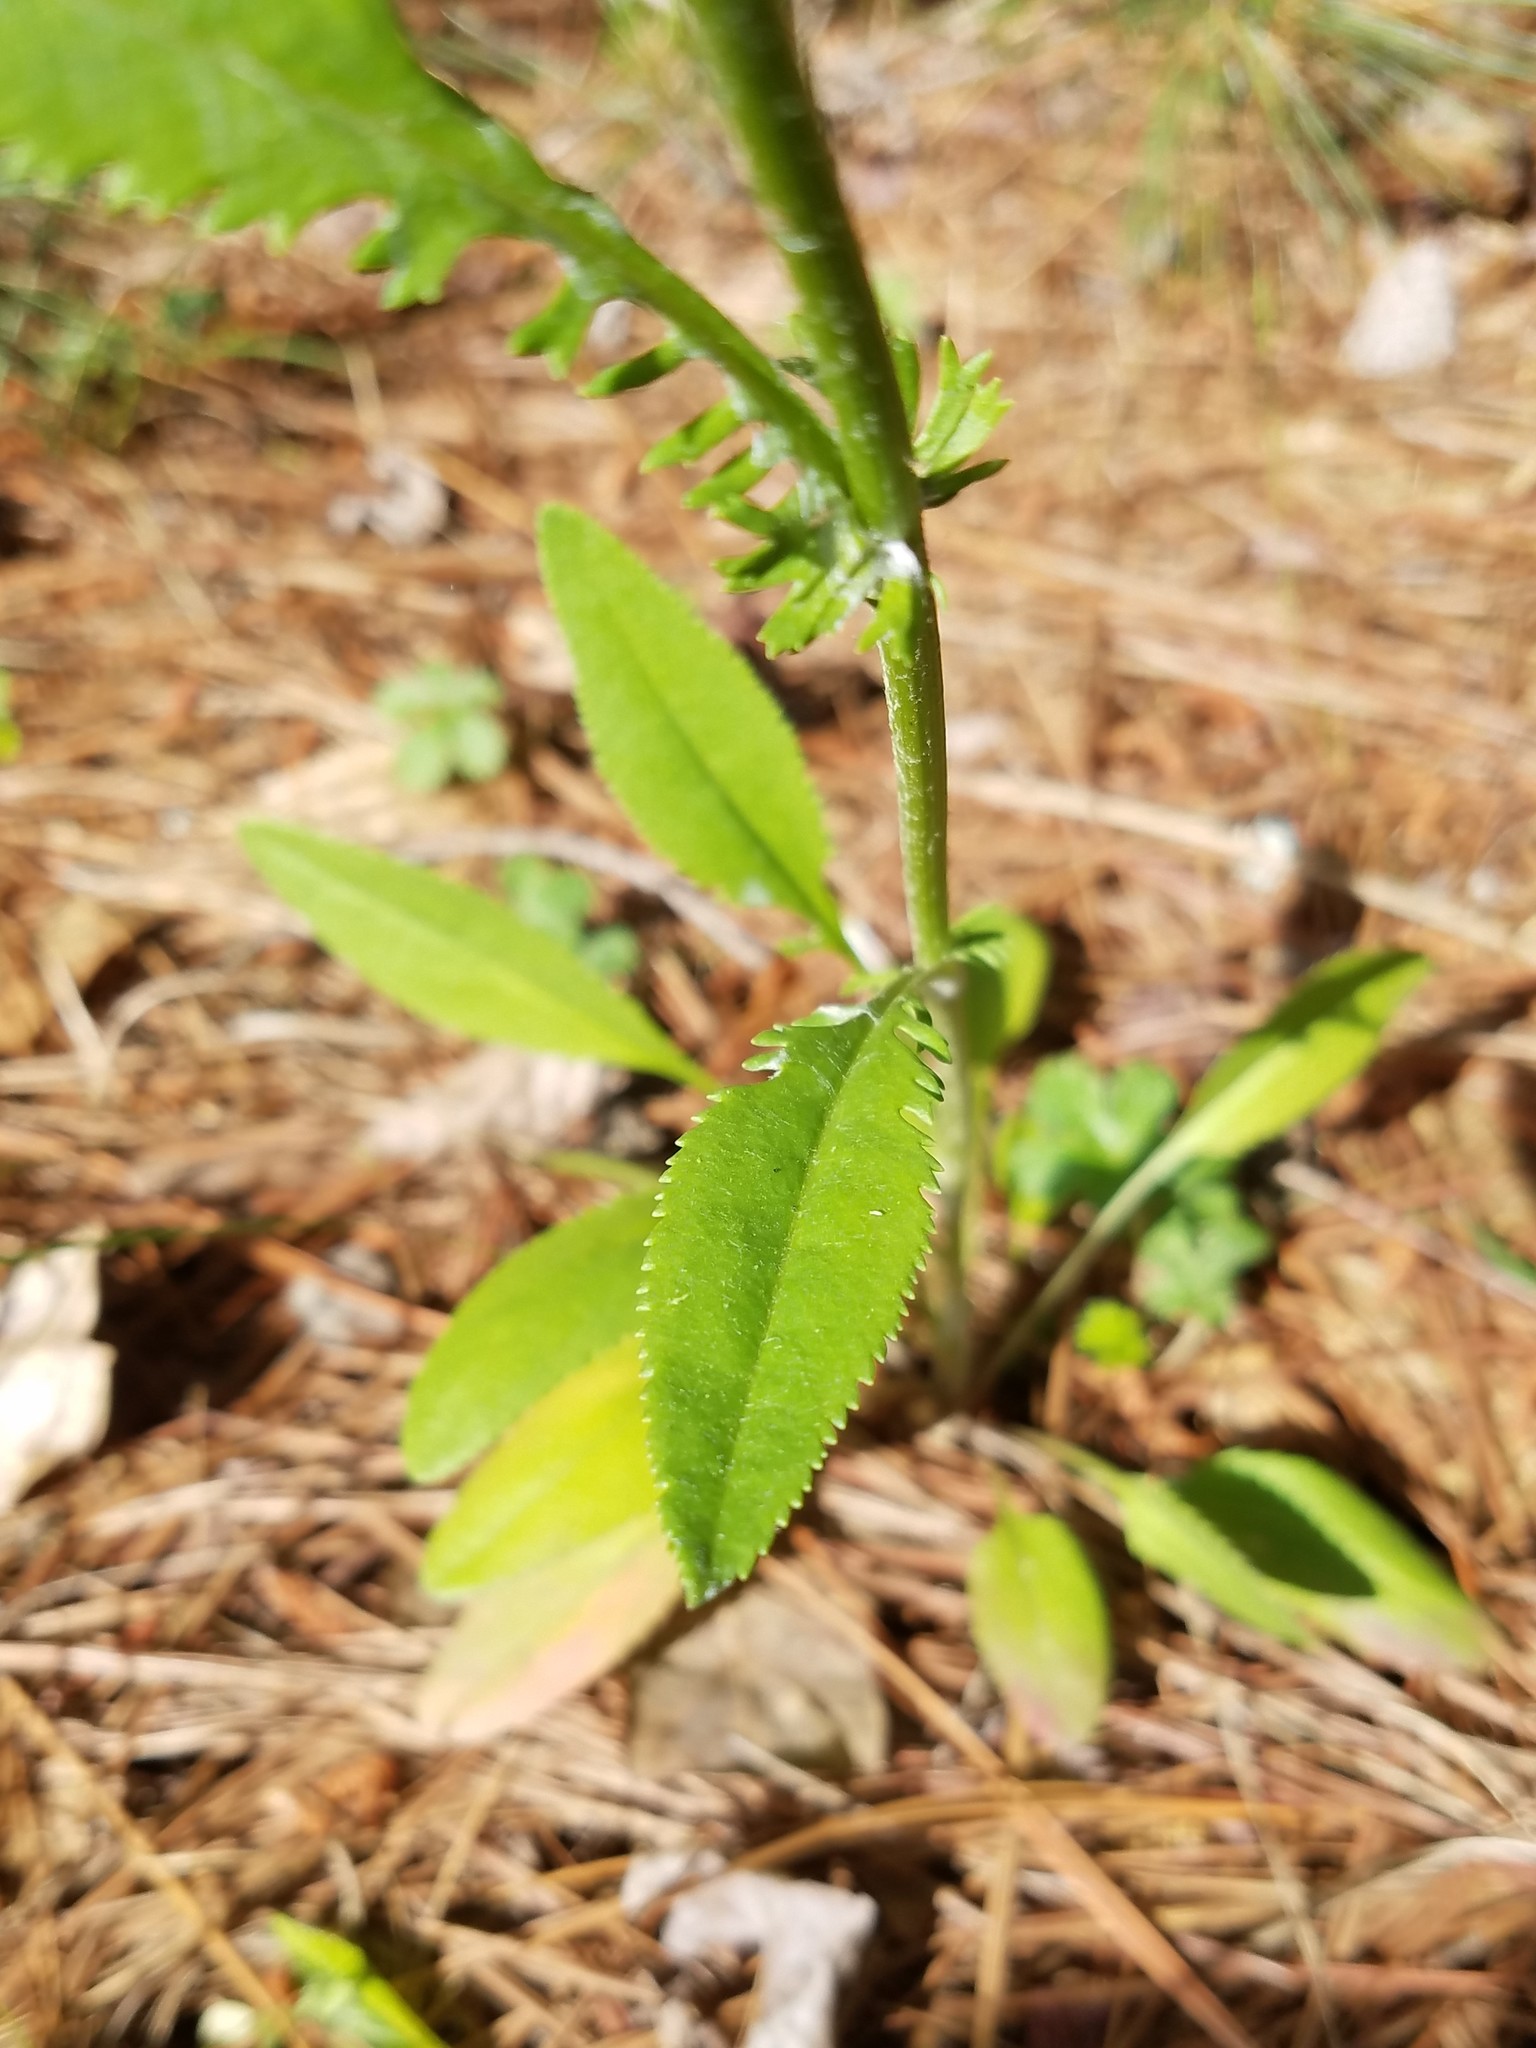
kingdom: Plantae
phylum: Tracheophyta
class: Magnoliopsida
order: Asterales
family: Asteraceae
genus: Packera
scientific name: Packera anonyma
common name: Small ragwort
